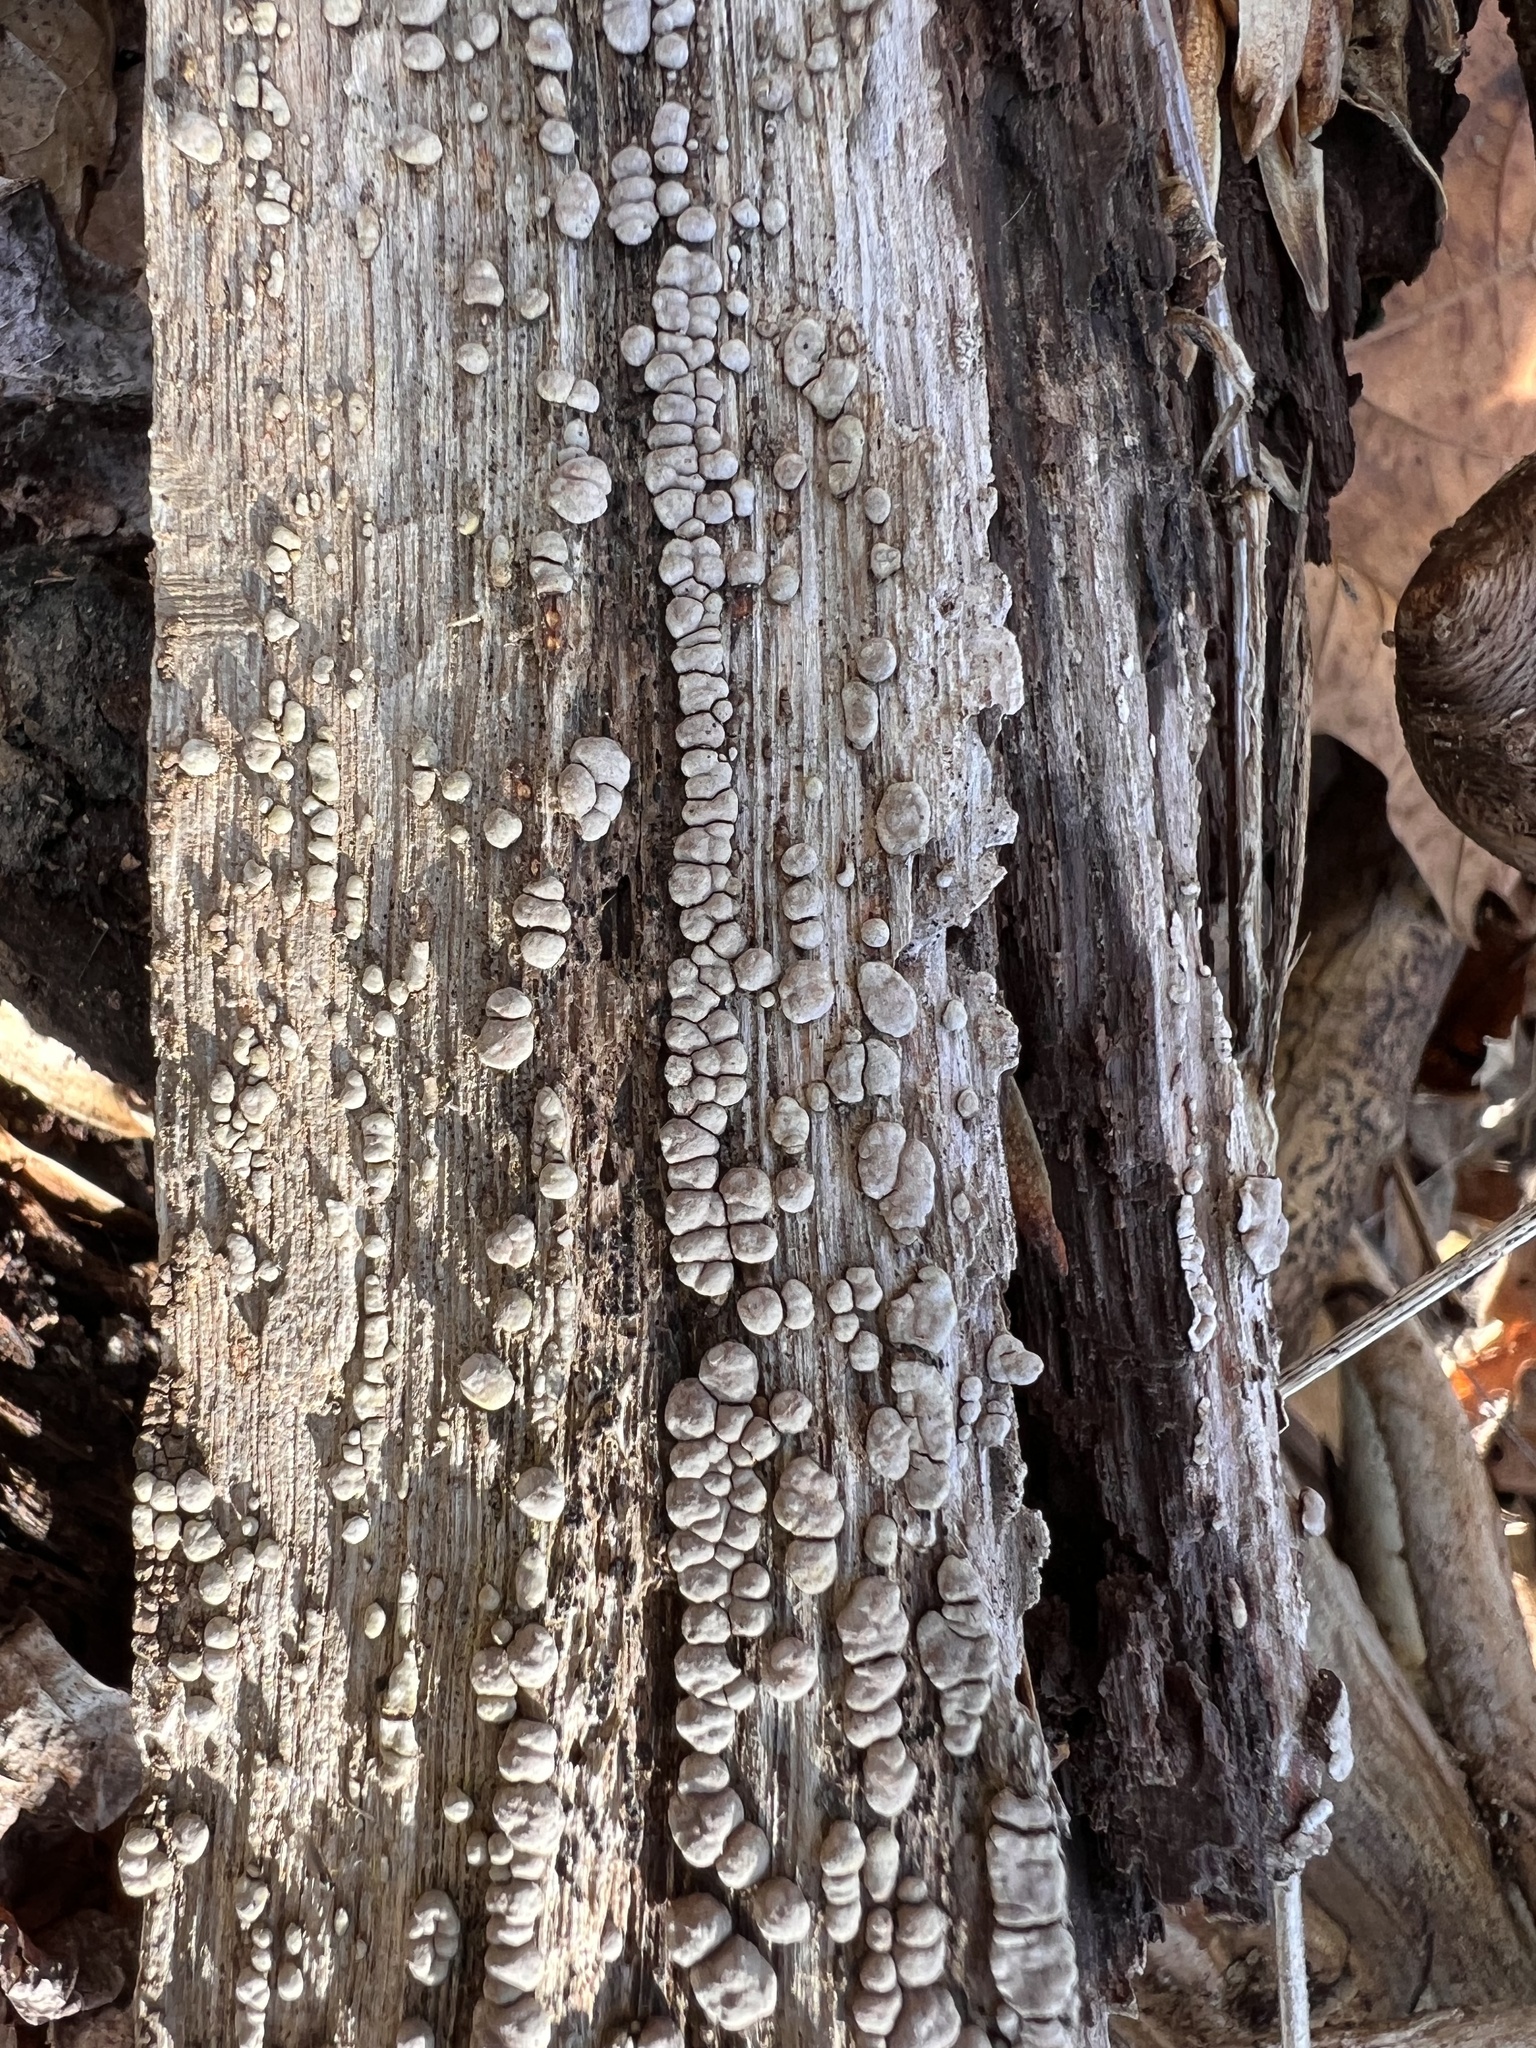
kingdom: Fungi
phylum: Basidiomycota
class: Agaricomycetes
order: Russulales
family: Stereaceae
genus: Xylobolus
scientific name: Xylobolus frustulatus
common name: Ceramic parchment
